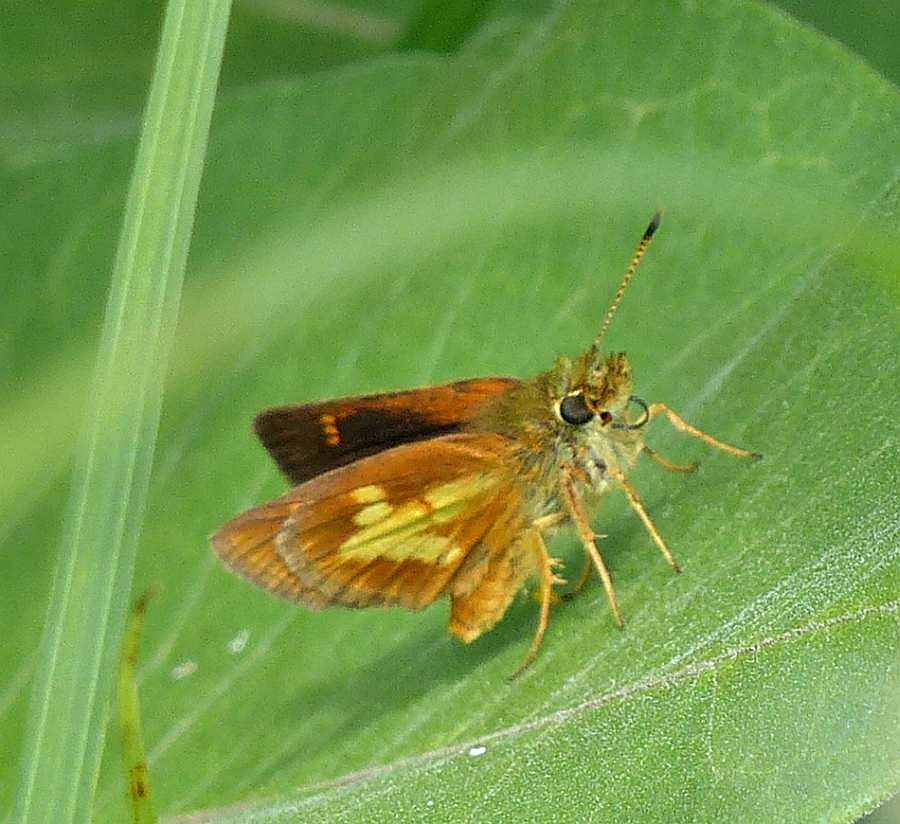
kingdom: Animalia
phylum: Arthropoda
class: Insecta
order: Lepidoptera
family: Hesperiidae
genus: Poanes
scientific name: Poanes massasoit
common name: Mulberrywing
